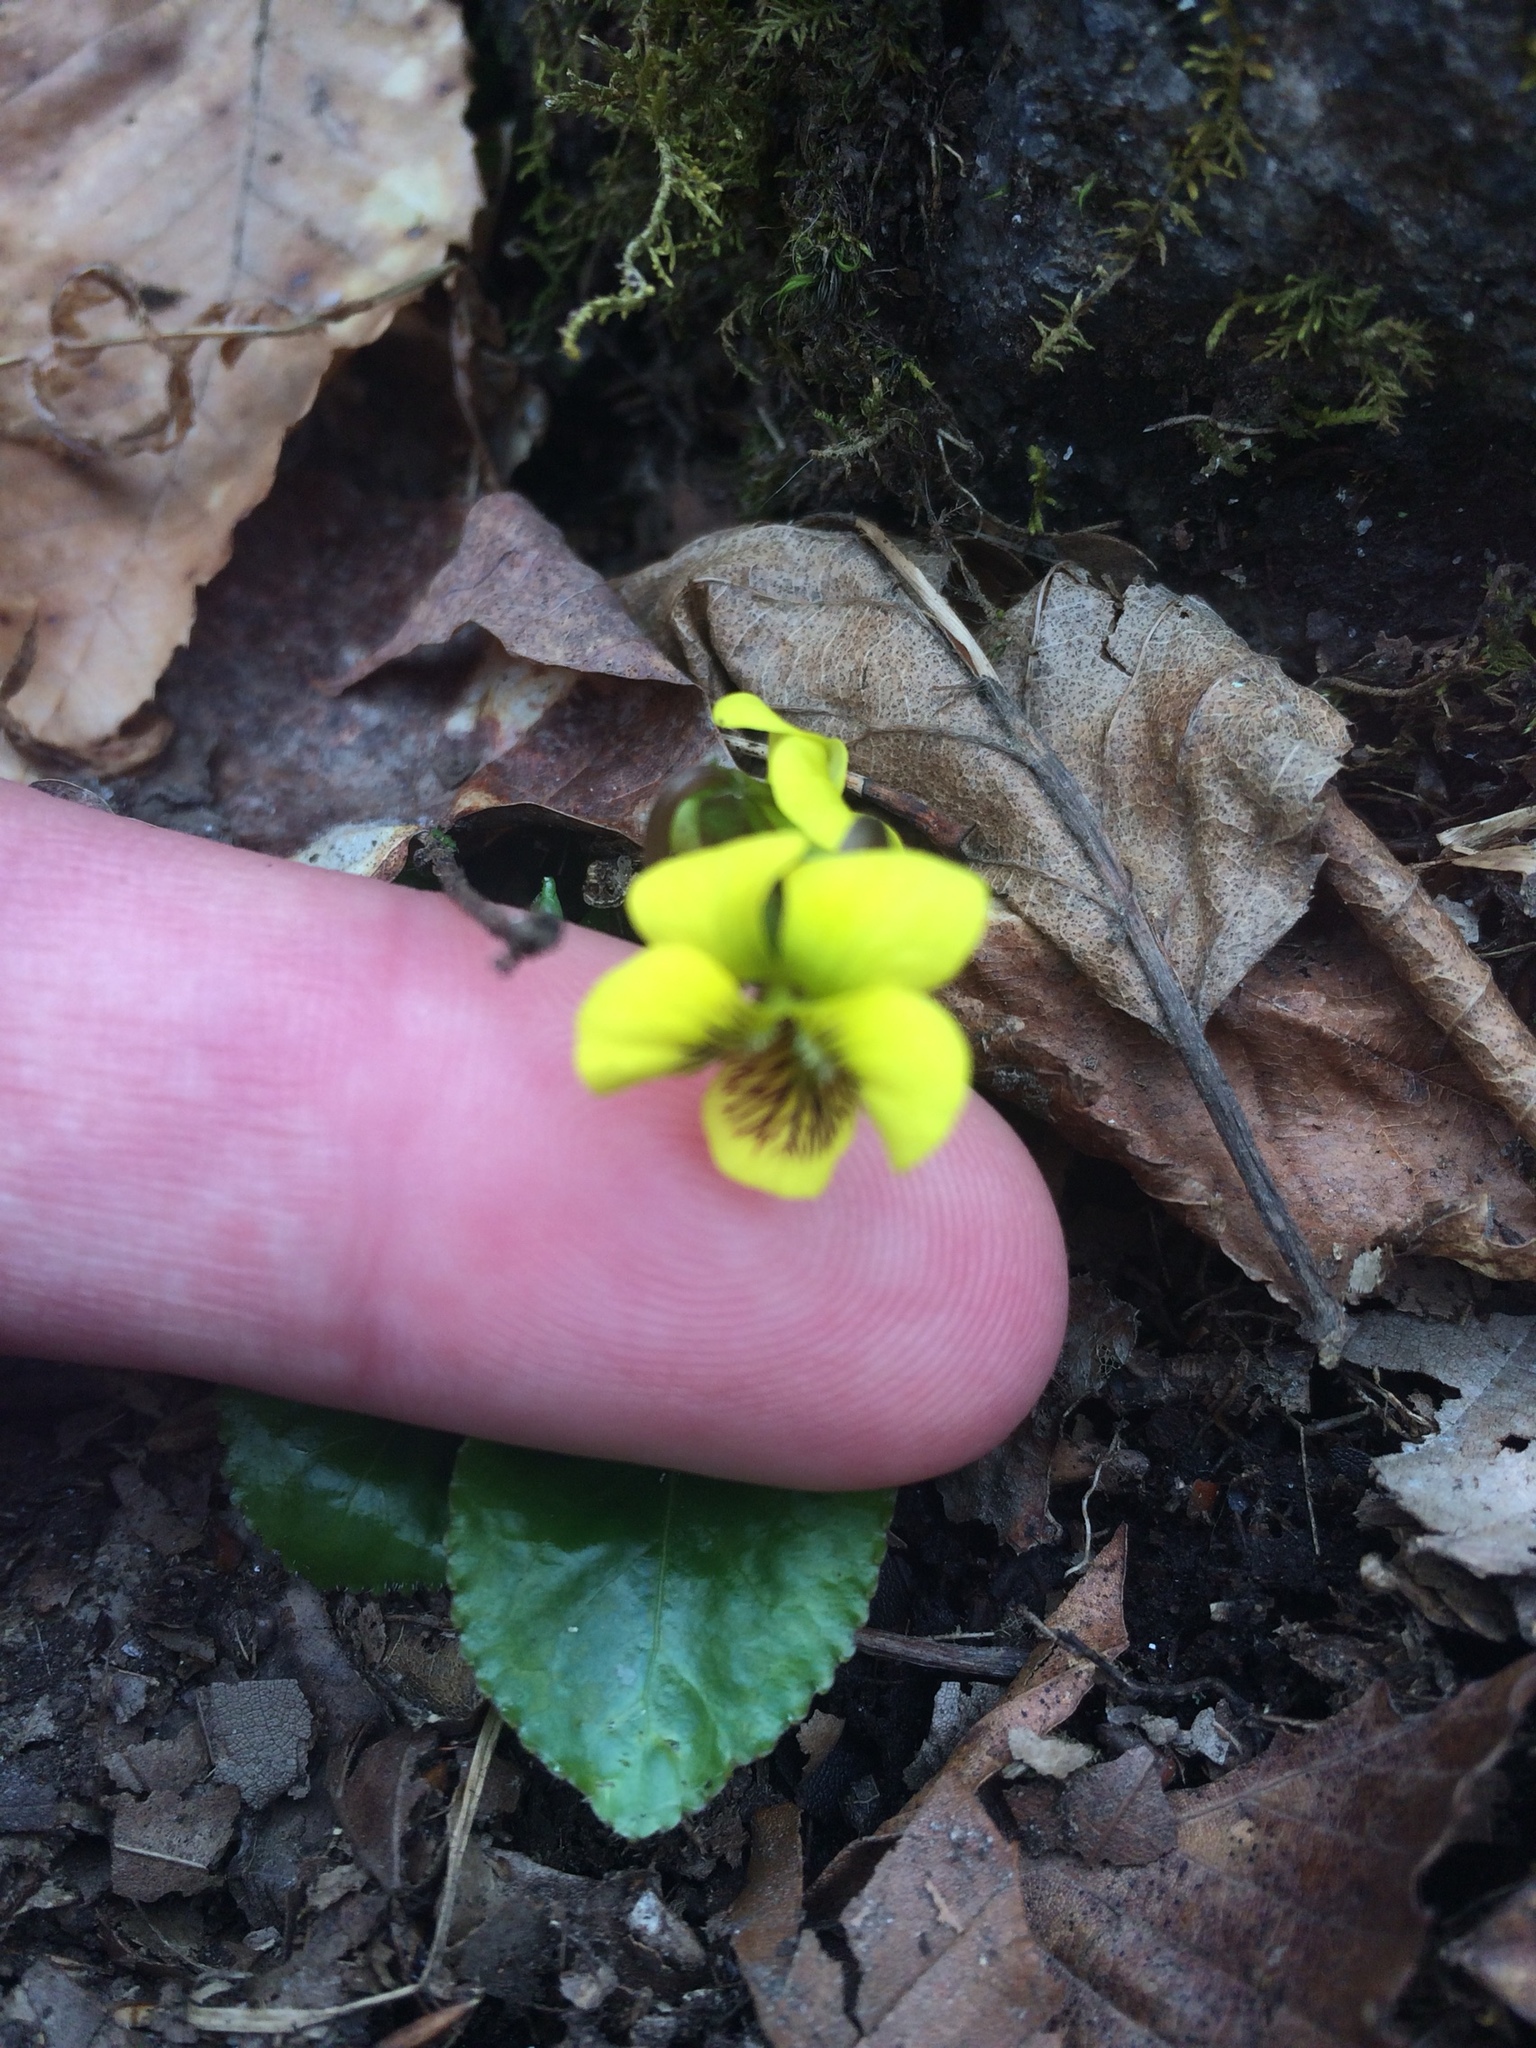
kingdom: Plantae
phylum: Tracheophyta
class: Magnoliopsida
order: Malpighiales
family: Violaceae
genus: Viola
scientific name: Viola rotundifolia
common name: Early yellow violet
